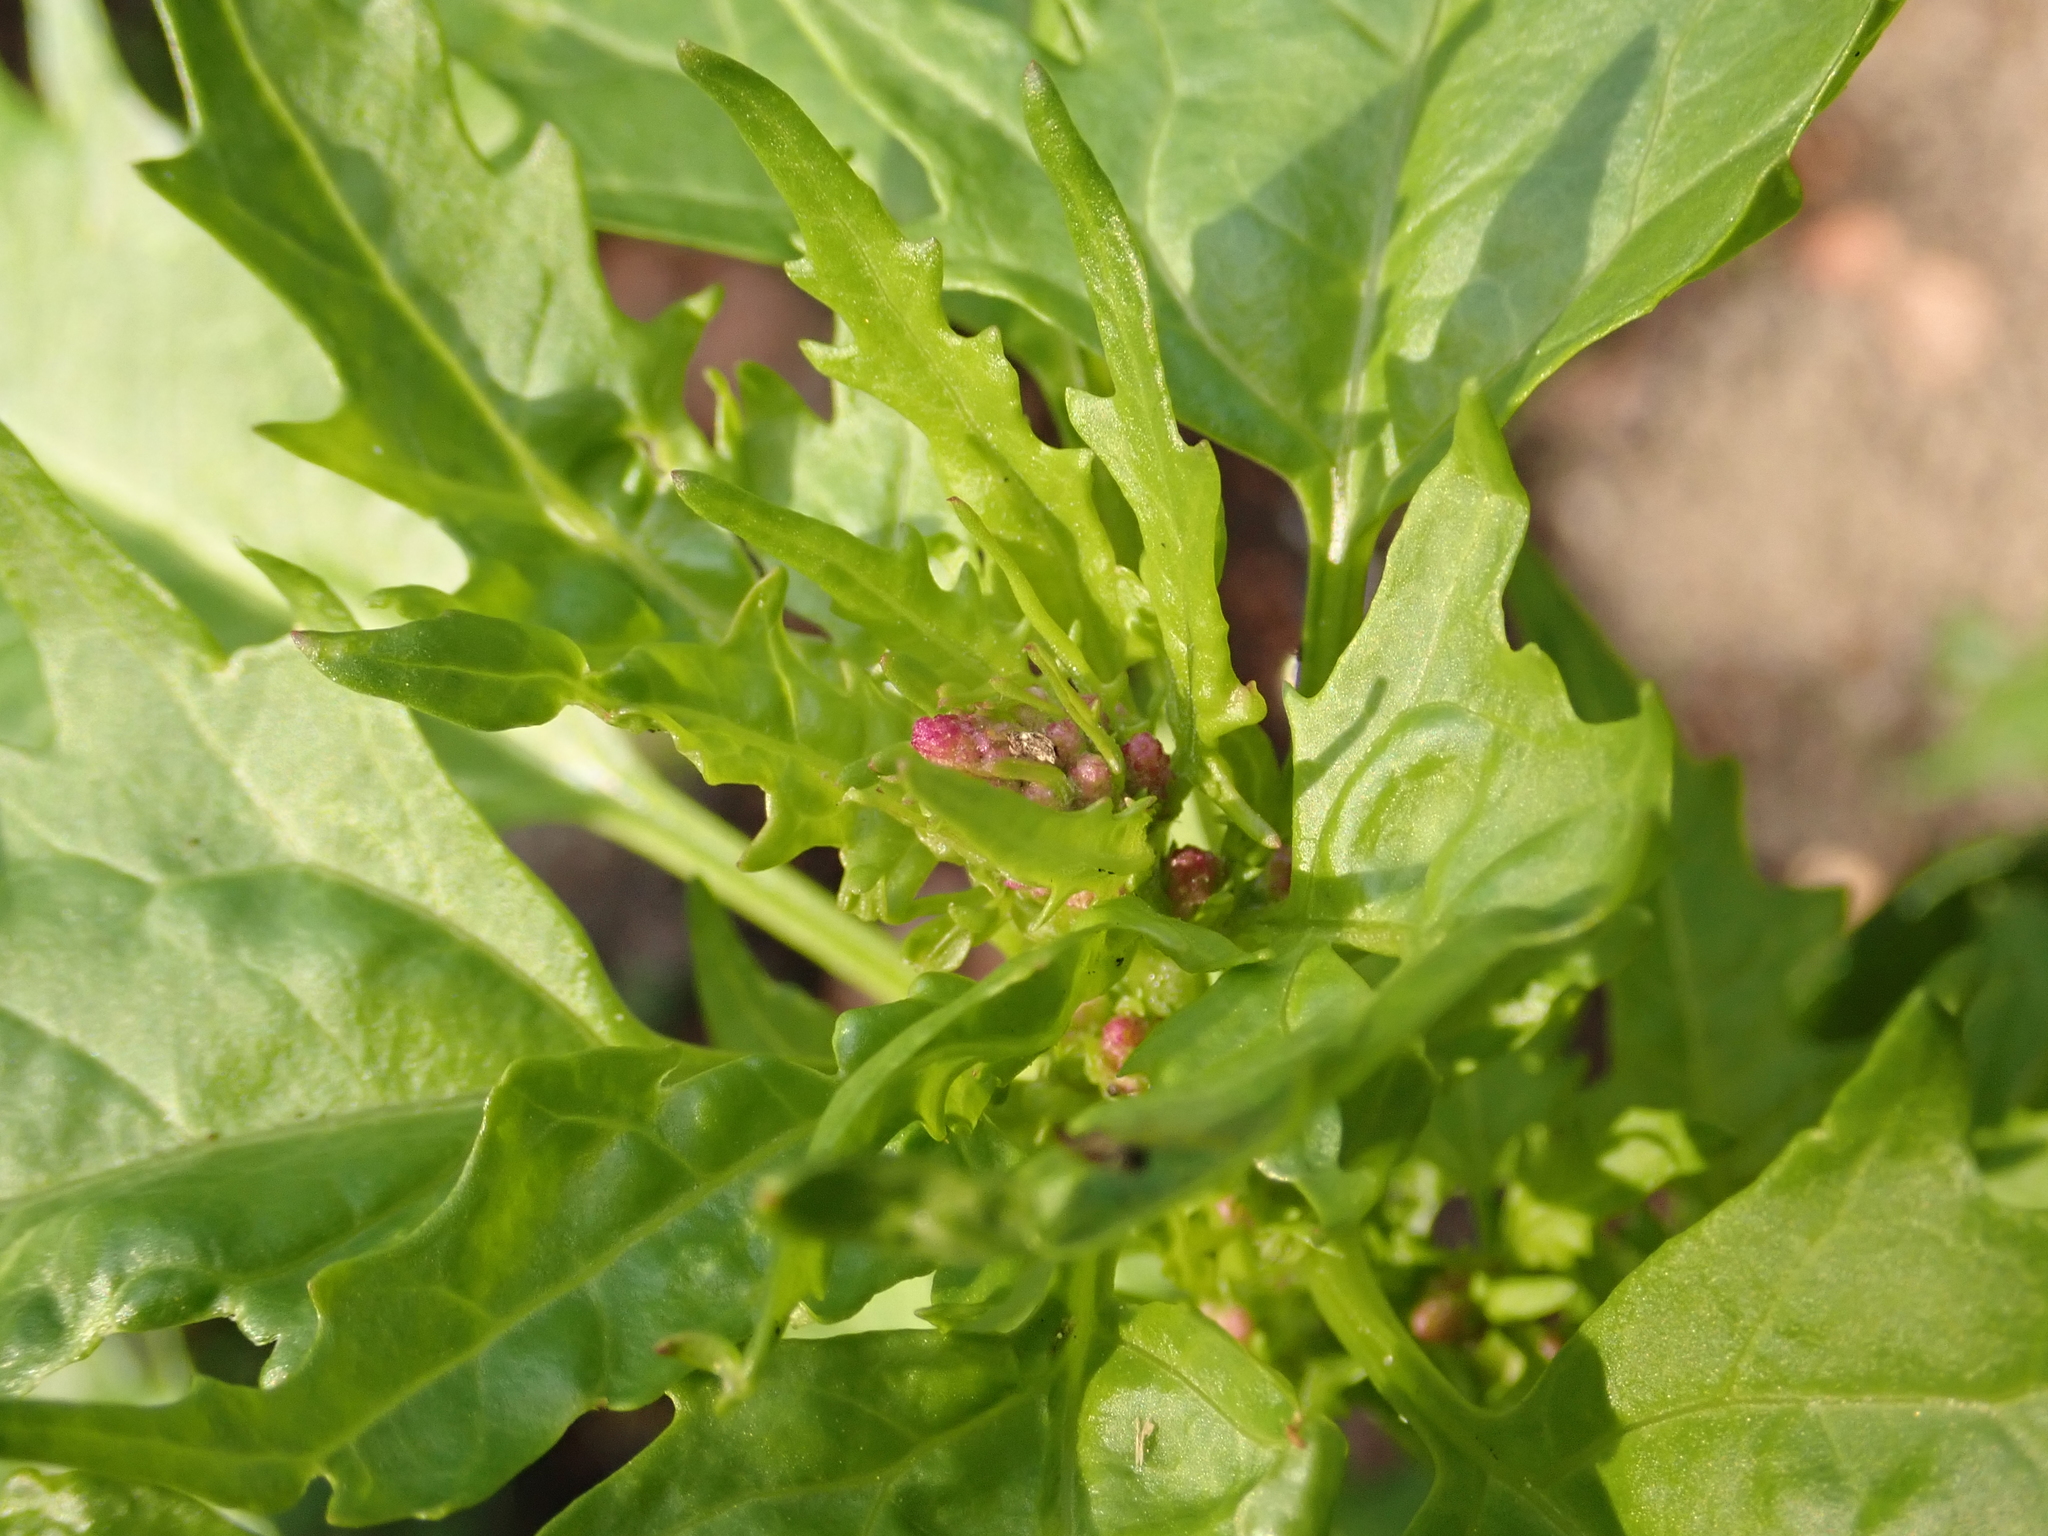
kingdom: Plantae
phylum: Tracheophyta
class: Magnoliopsida
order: Solanales
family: Solanaceae
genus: Datura
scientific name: Datura stramonium
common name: Thorn-apple
